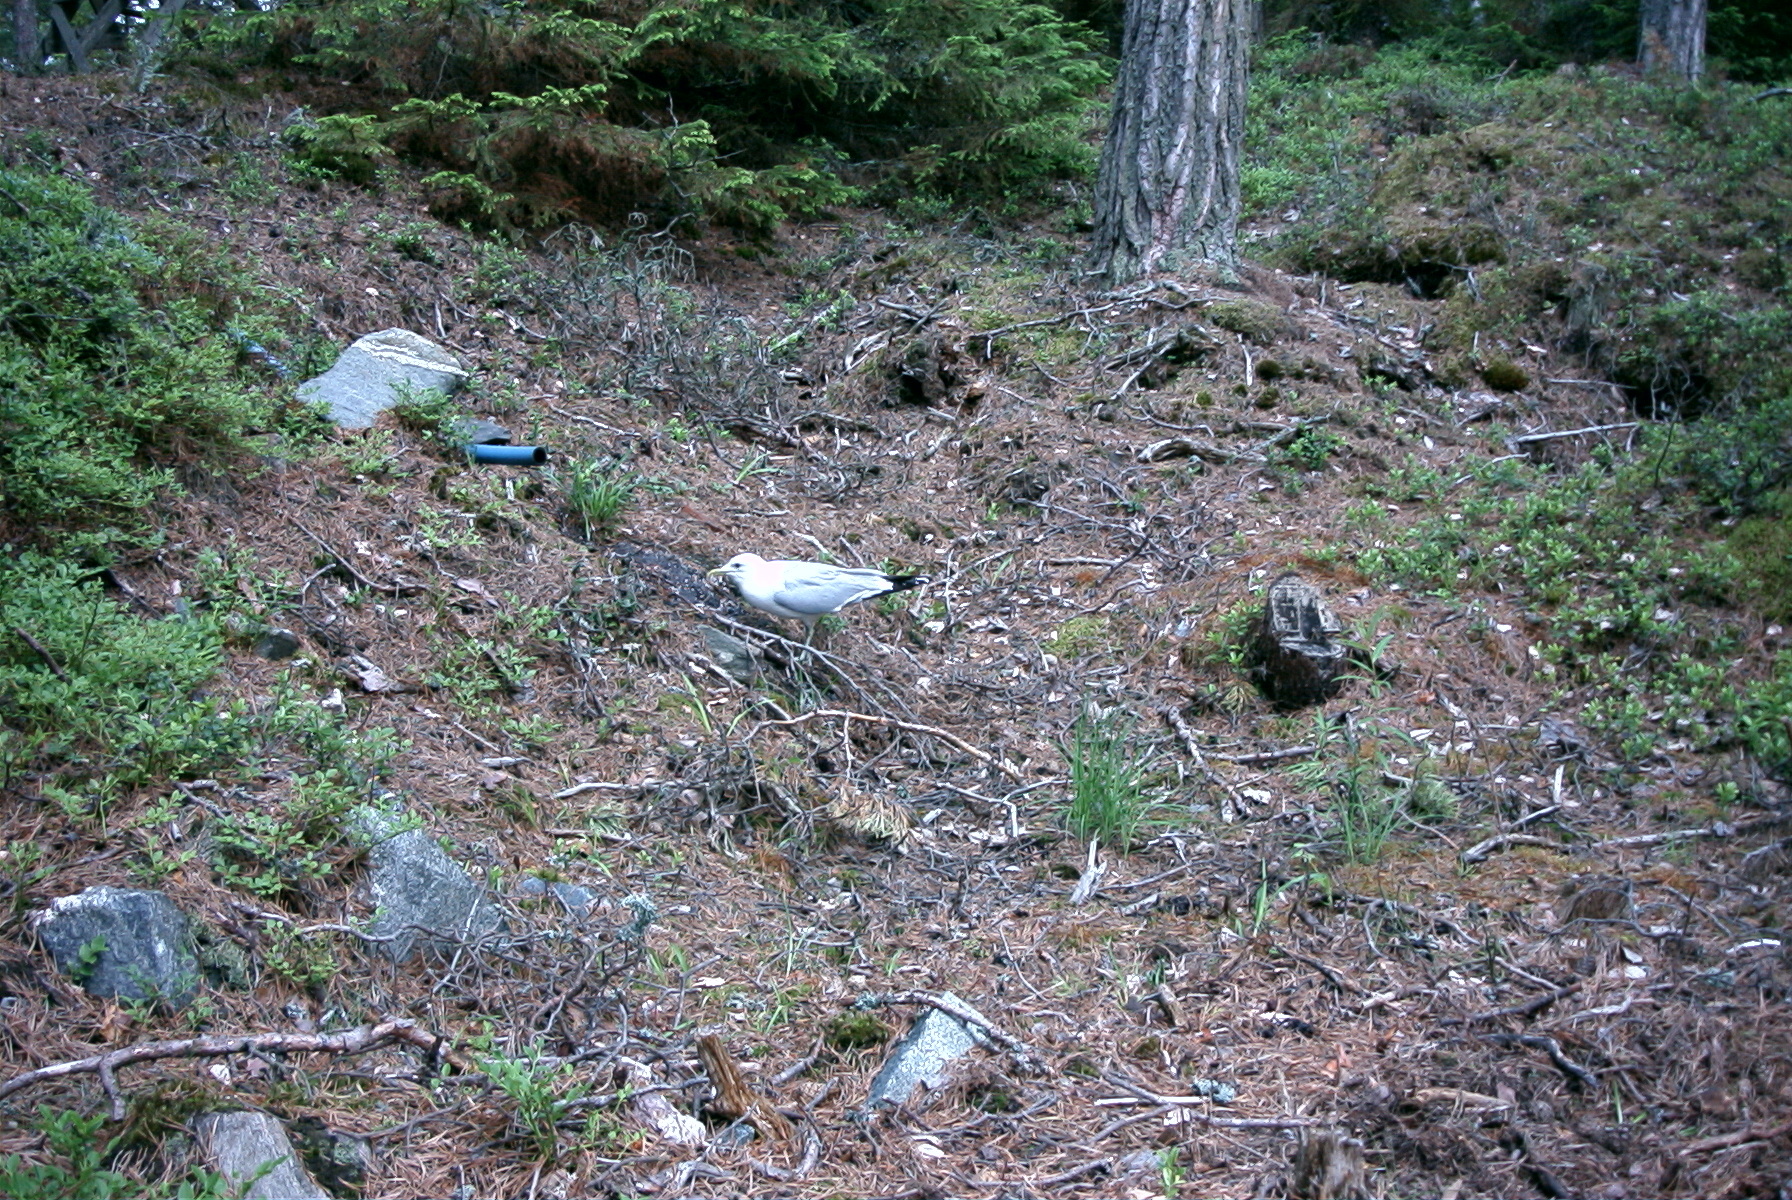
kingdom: Animalia
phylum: Chordata
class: Aves
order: Charadriiformes
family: Laridae
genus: Larus
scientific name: Larus canus
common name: Mew gull
